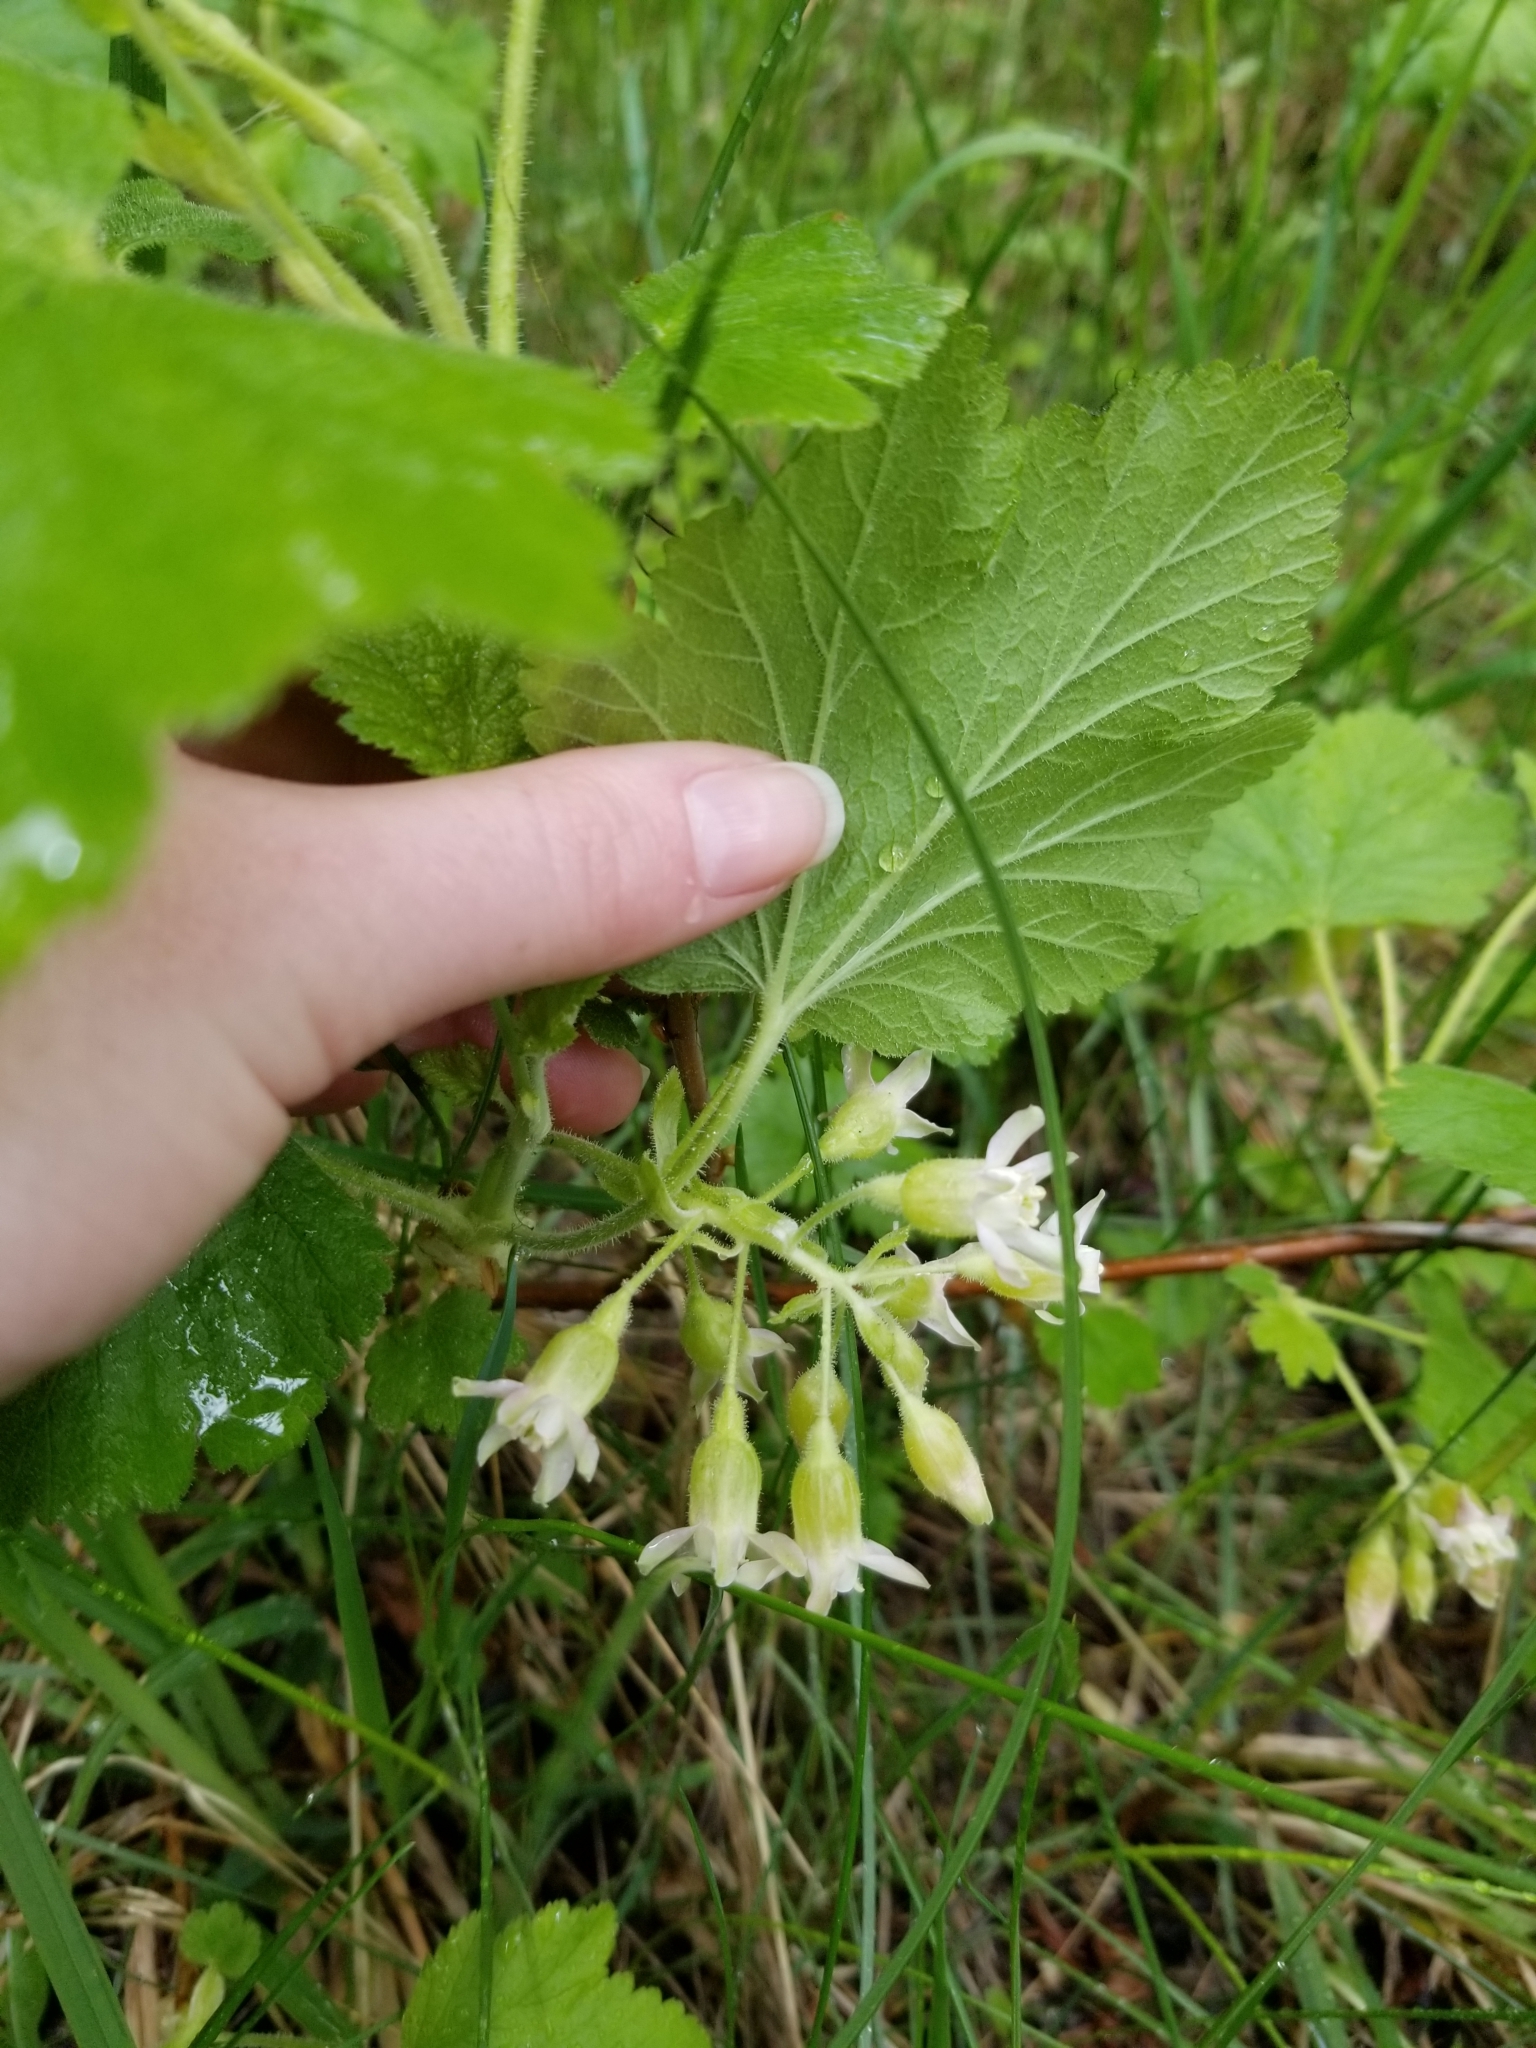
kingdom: Plantae
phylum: Tracheophyta
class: Magnoliopsida
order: Saxifragales
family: Grossulariaceae
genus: Ribes
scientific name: Ribes viscosissimum
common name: Sticky currant
